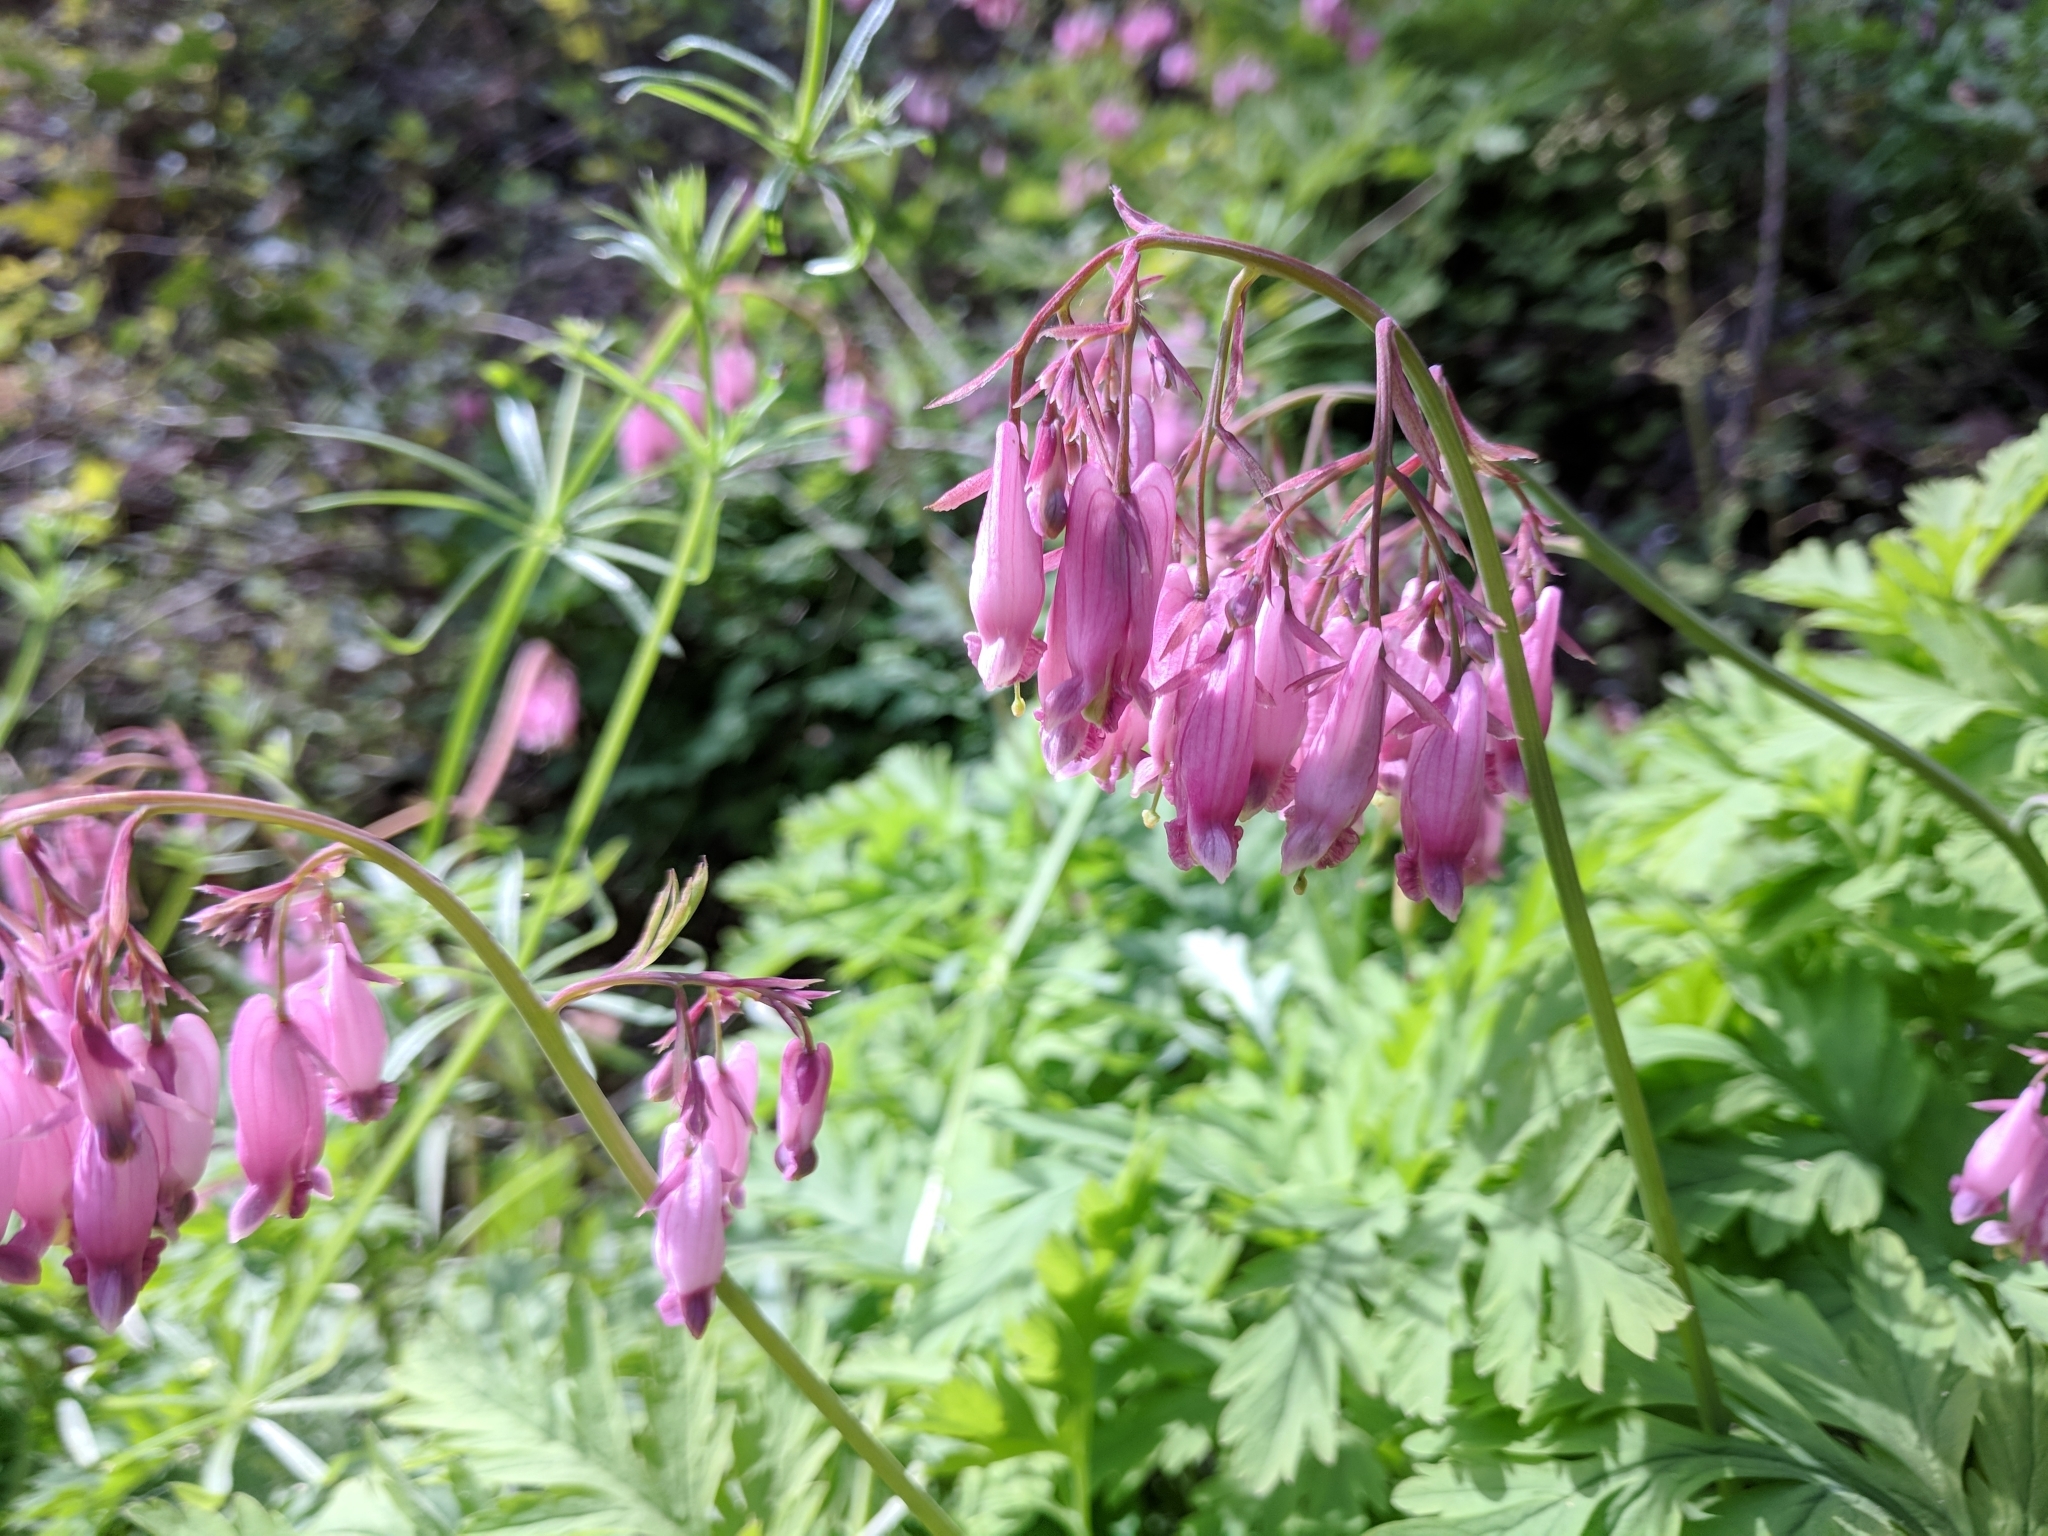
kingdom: Plantae
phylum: Tracheophyta
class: Magnoliopsida
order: Ranunculales
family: Papaveraceae
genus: Dicentra
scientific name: Dicentra formosa
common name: Bleeding-heart
